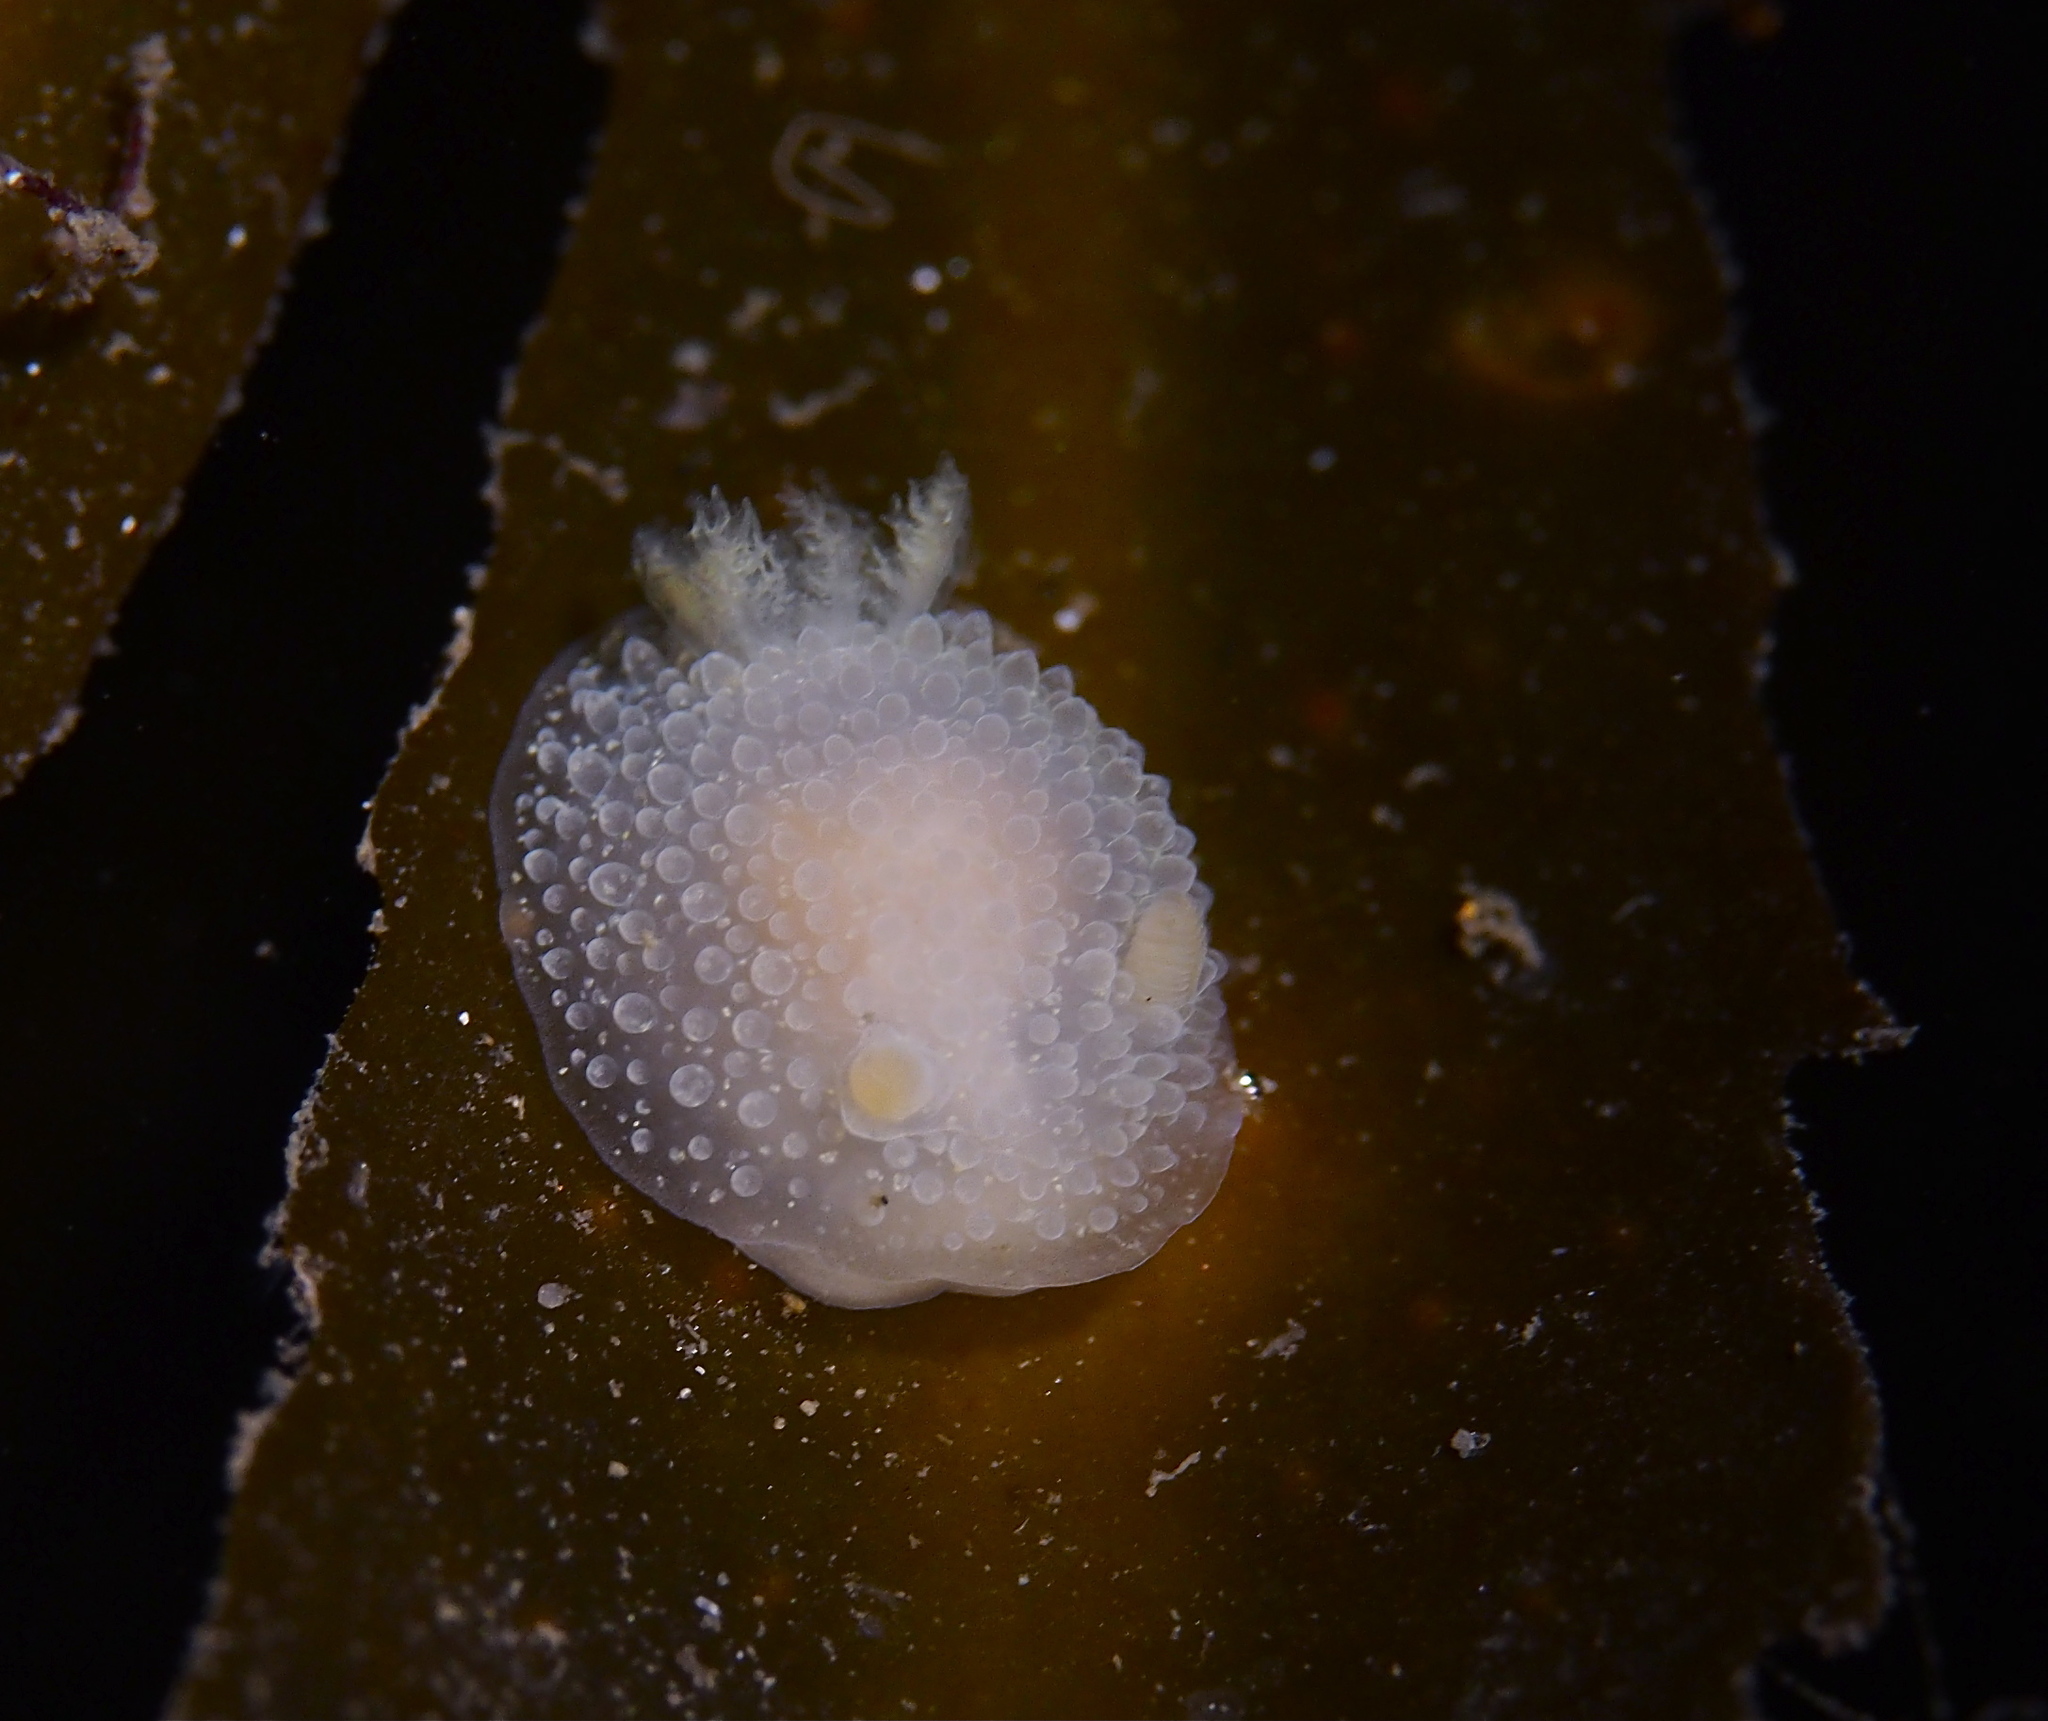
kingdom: Animalia
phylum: Mollusca
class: Gastropoda
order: Nudibranchia
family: Onchidorididae
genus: Acanthodoris
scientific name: Acanthodoris pilosa
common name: Hairy spiny doris
